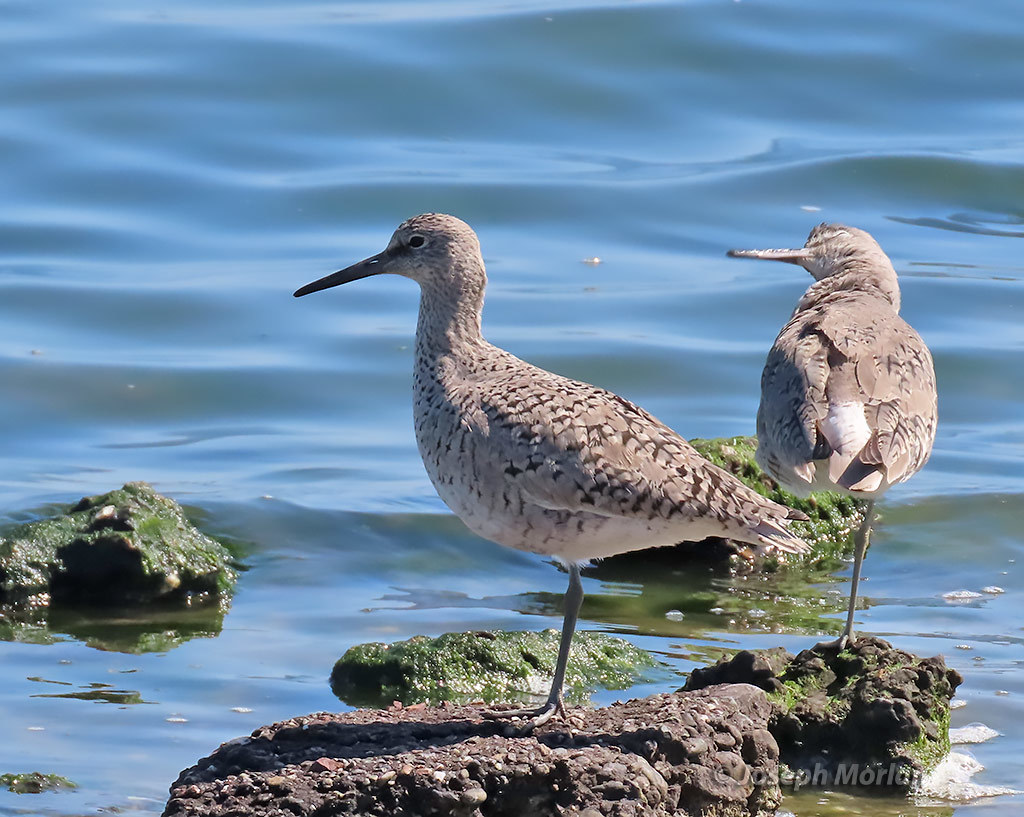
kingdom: Animalia
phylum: Chordata
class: Aves
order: Charadriiformes
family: Scolopacidae
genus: Tringa
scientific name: Tringa semipalmata
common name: Willet
